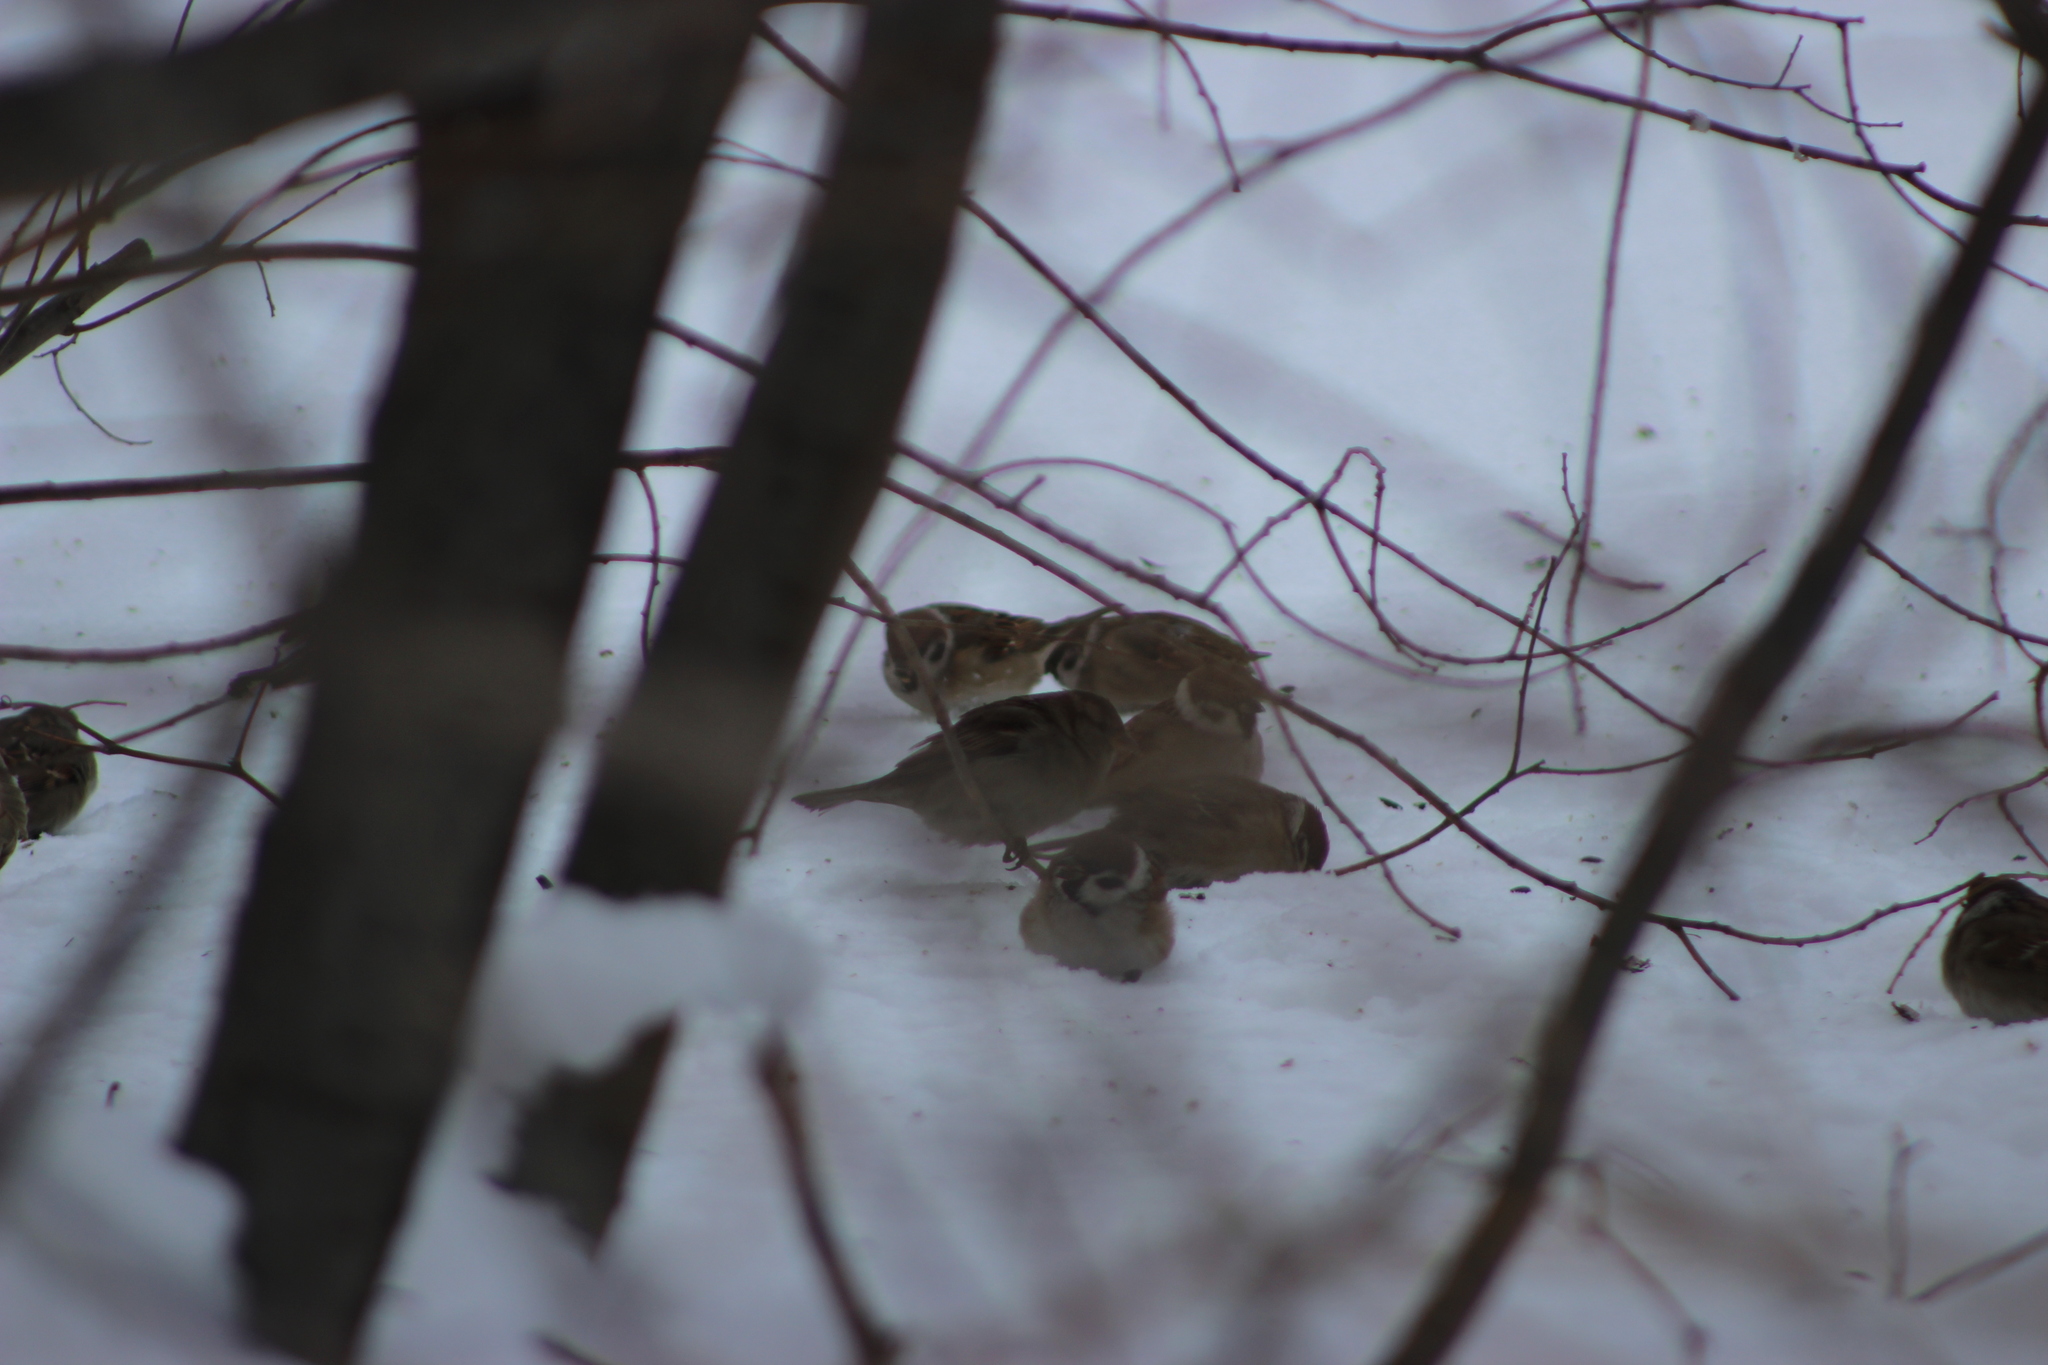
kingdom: Animalia
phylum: Chordata
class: Aves
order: Passeriformes
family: Passeridae
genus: Passer
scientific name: Passer montanus
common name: Eurasian tree sparrow
